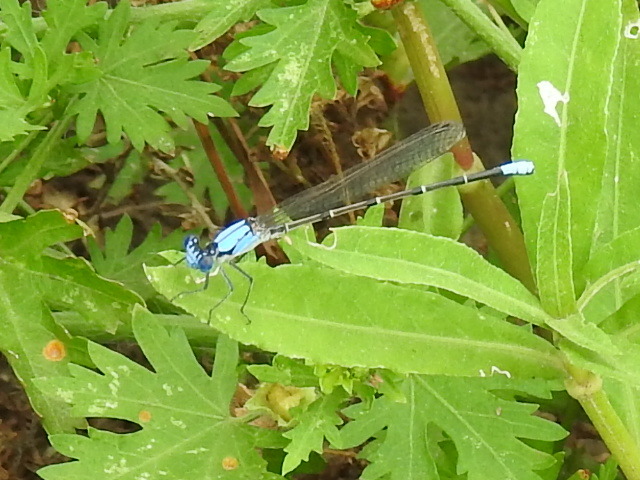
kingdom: Animalia
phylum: Arthropoda
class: Insecta
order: Odonata
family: Coenagrionidae
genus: Argia
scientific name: Argia apicalis
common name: Blue-fronted dancer
